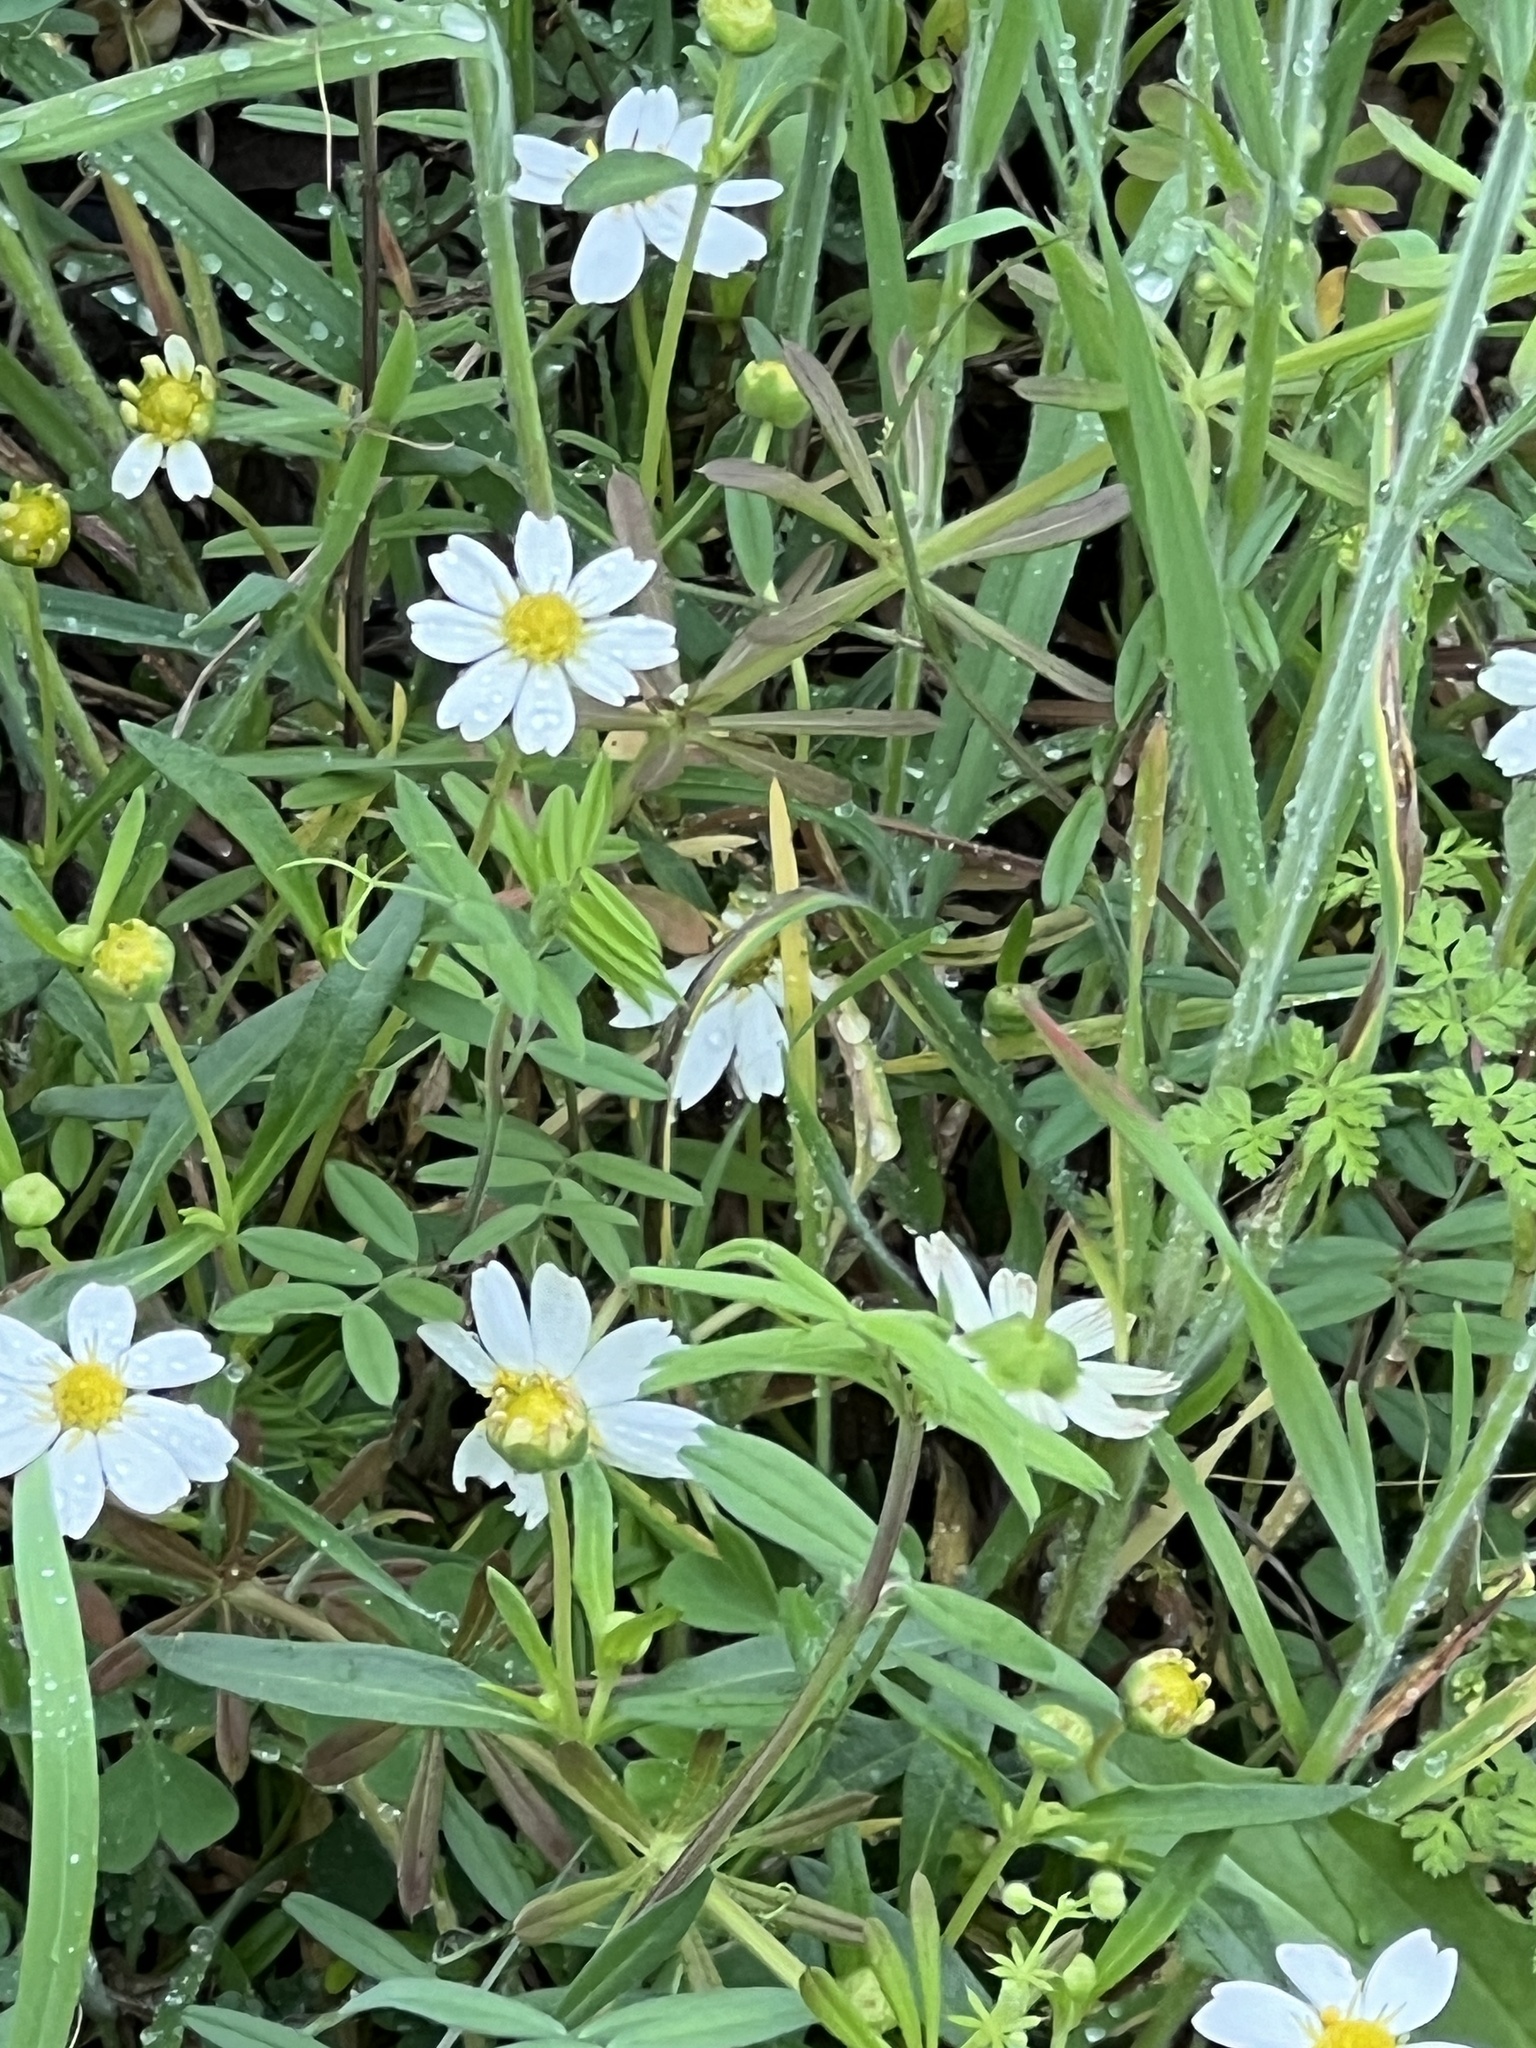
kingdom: Plantae
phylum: Tracheophyta
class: Magnoliopsida
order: Asterales
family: Asteraceae
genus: Melampodium
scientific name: Melampodium leucanthum
